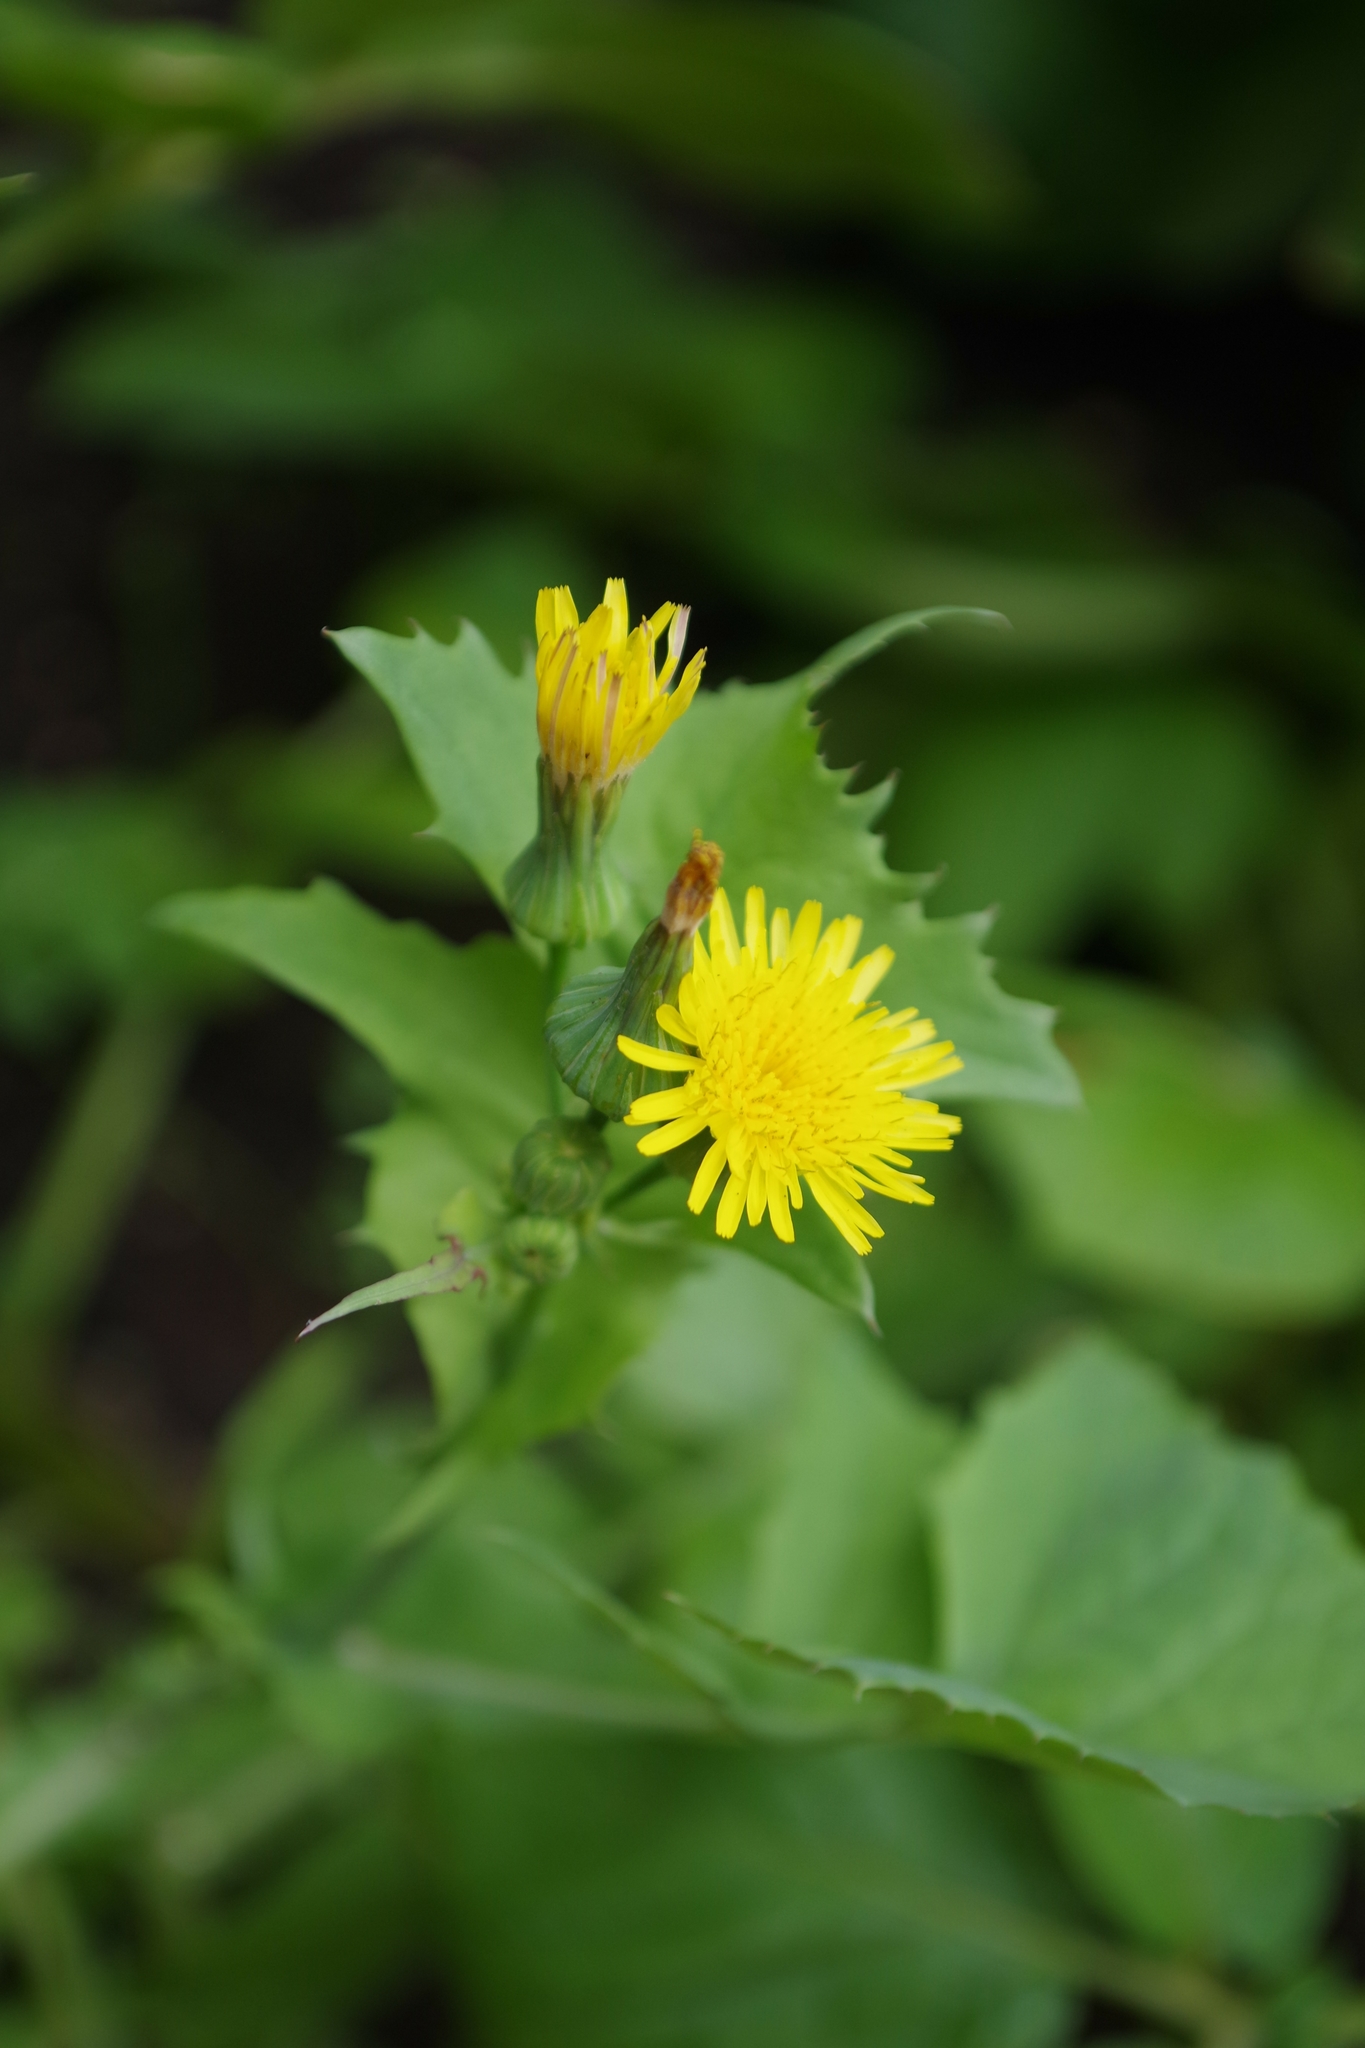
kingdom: Plantae
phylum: Tracheophyta
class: Magnoliopsida
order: Asterales
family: Asteraceae
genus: Sonchus
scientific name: Sonchus oleraceus
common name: Common sowthistle
